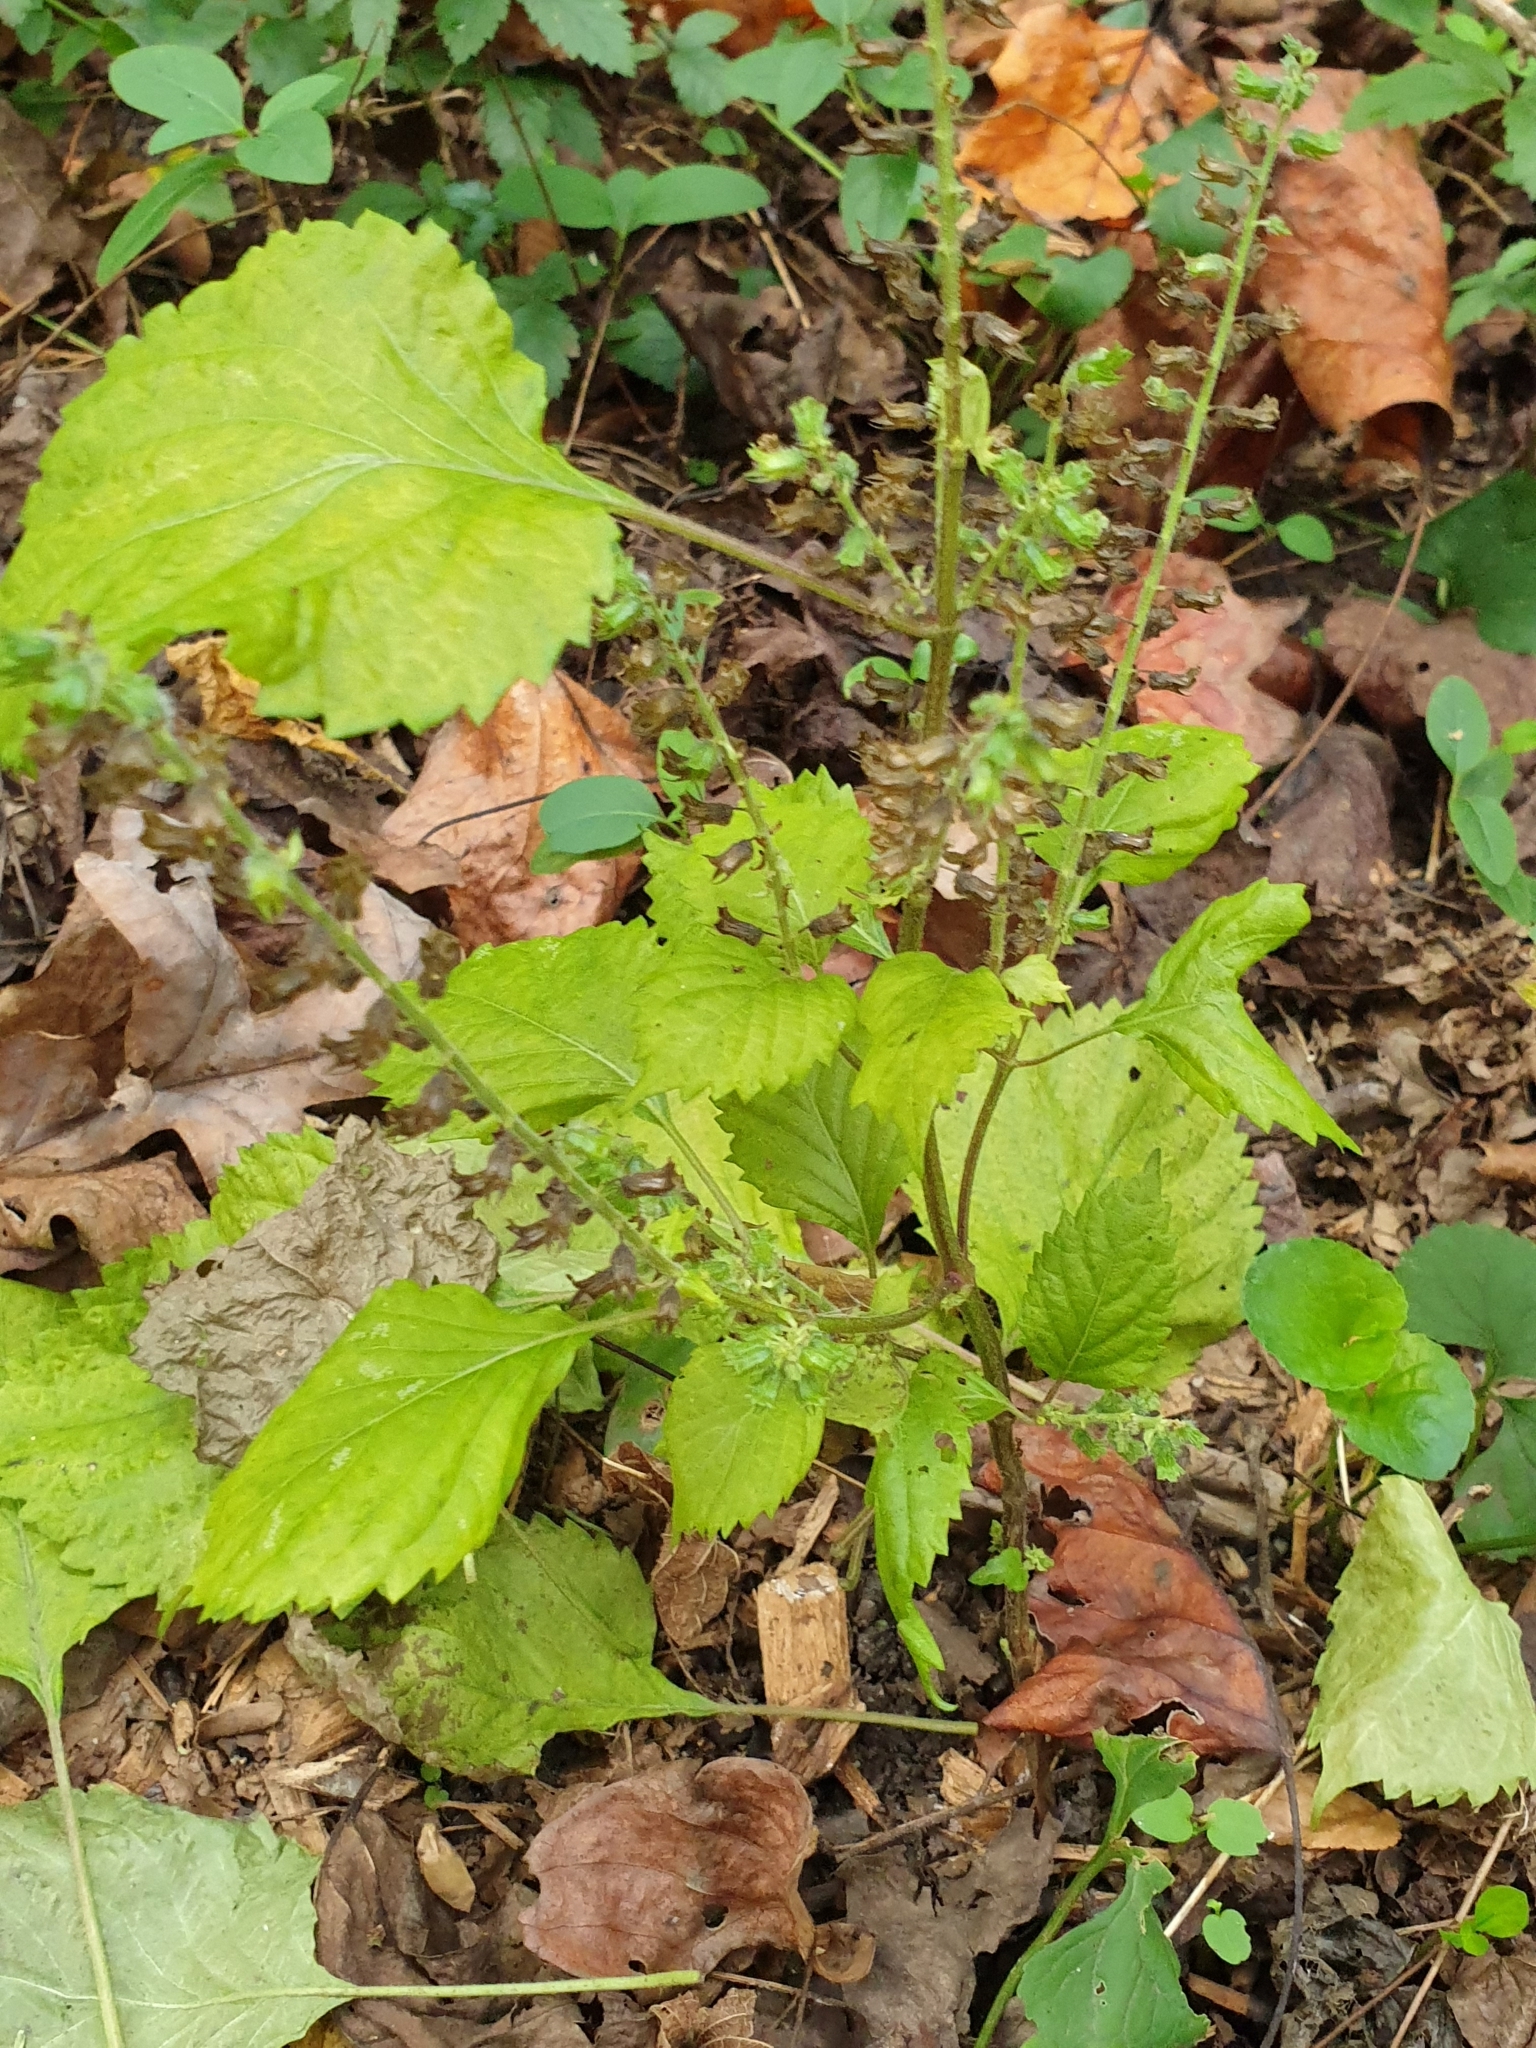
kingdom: Plantae
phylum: Tracheophyta
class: Magnoliopsida
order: Lamiales
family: Lamiaceae
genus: Perilla
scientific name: Perilla frutescens
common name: Perilla
